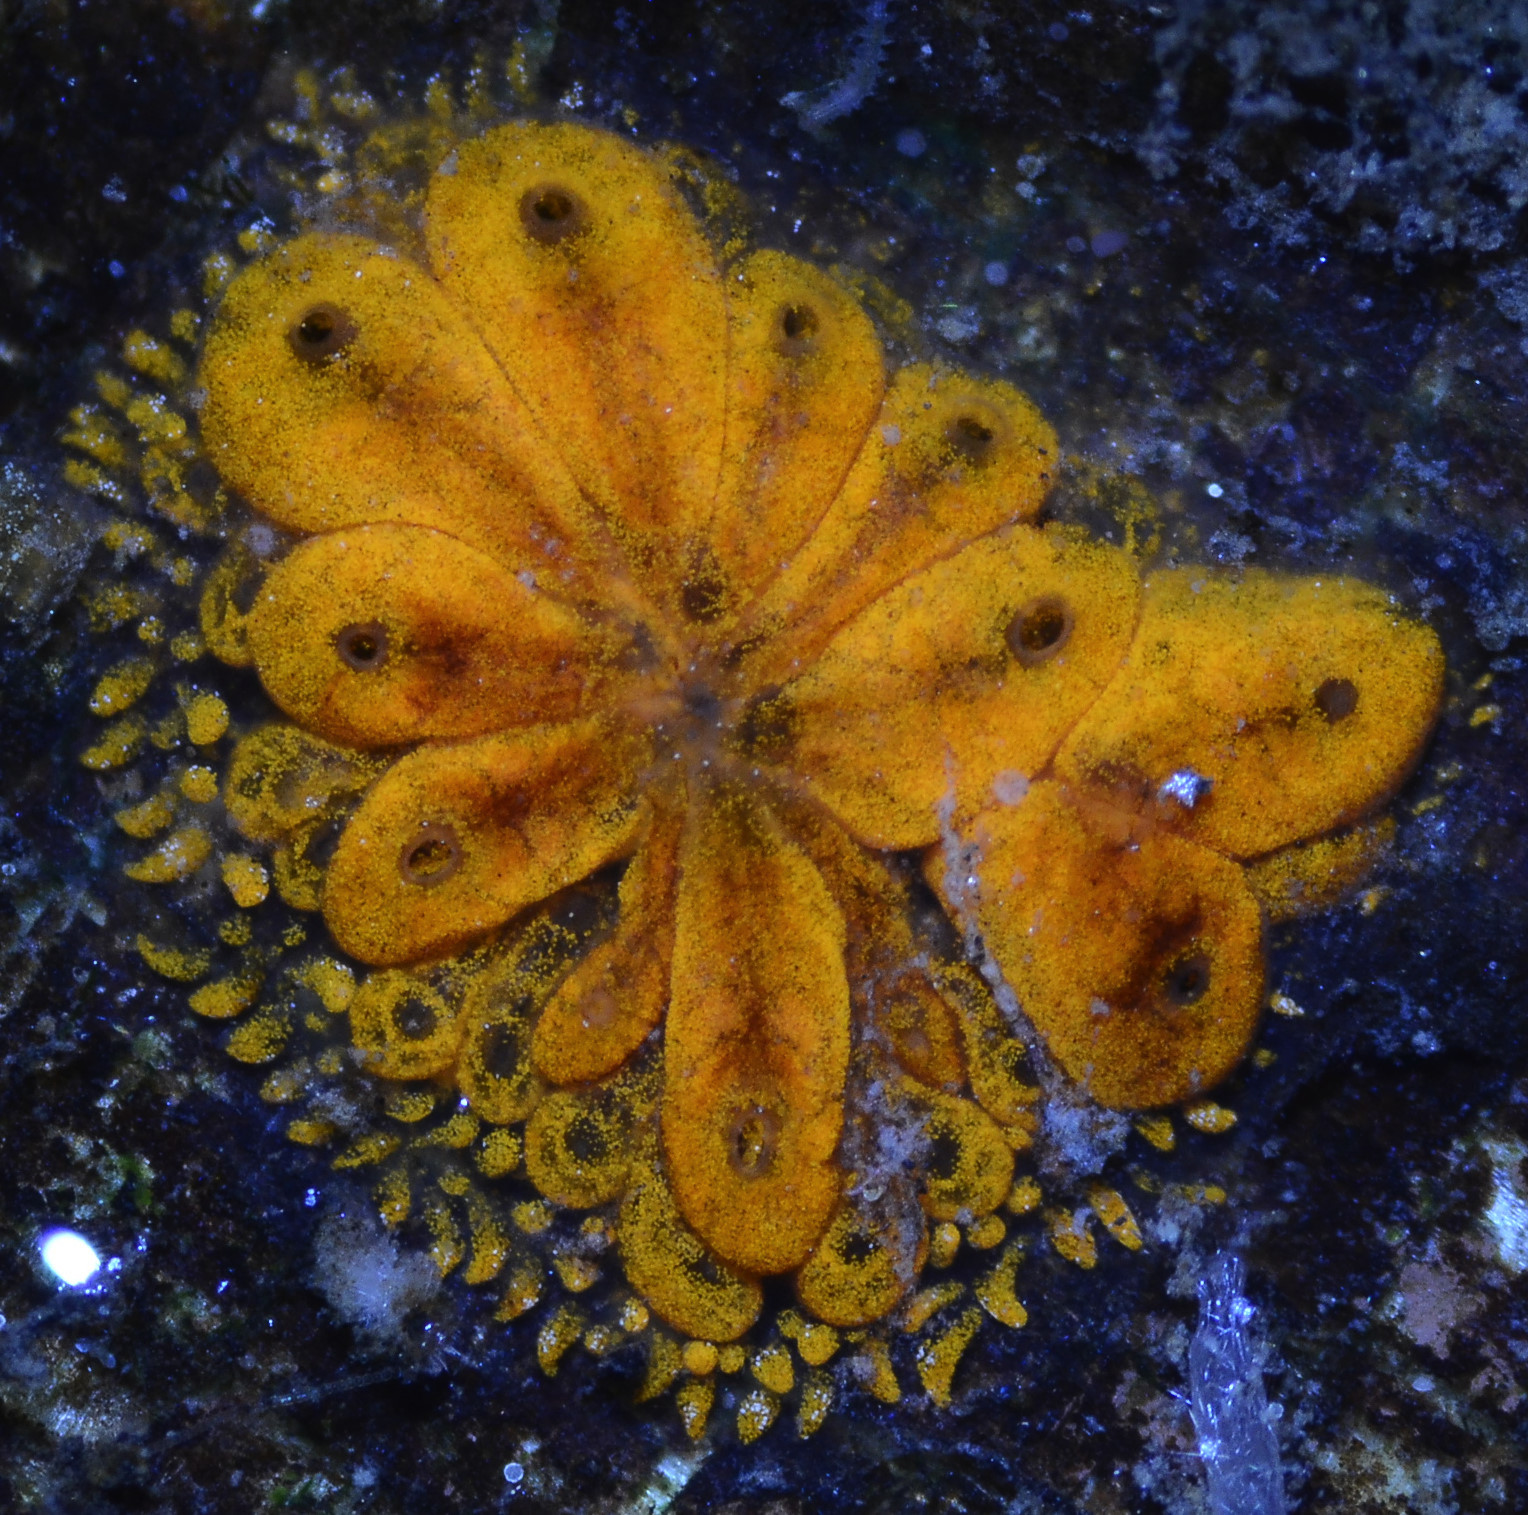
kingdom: Animalia
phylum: Chordata
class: Ascidiacea
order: Stolidobranchia
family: Styelidae
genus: Botryllus
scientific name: Botryllus schlosseri
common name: Golden star tunicate
